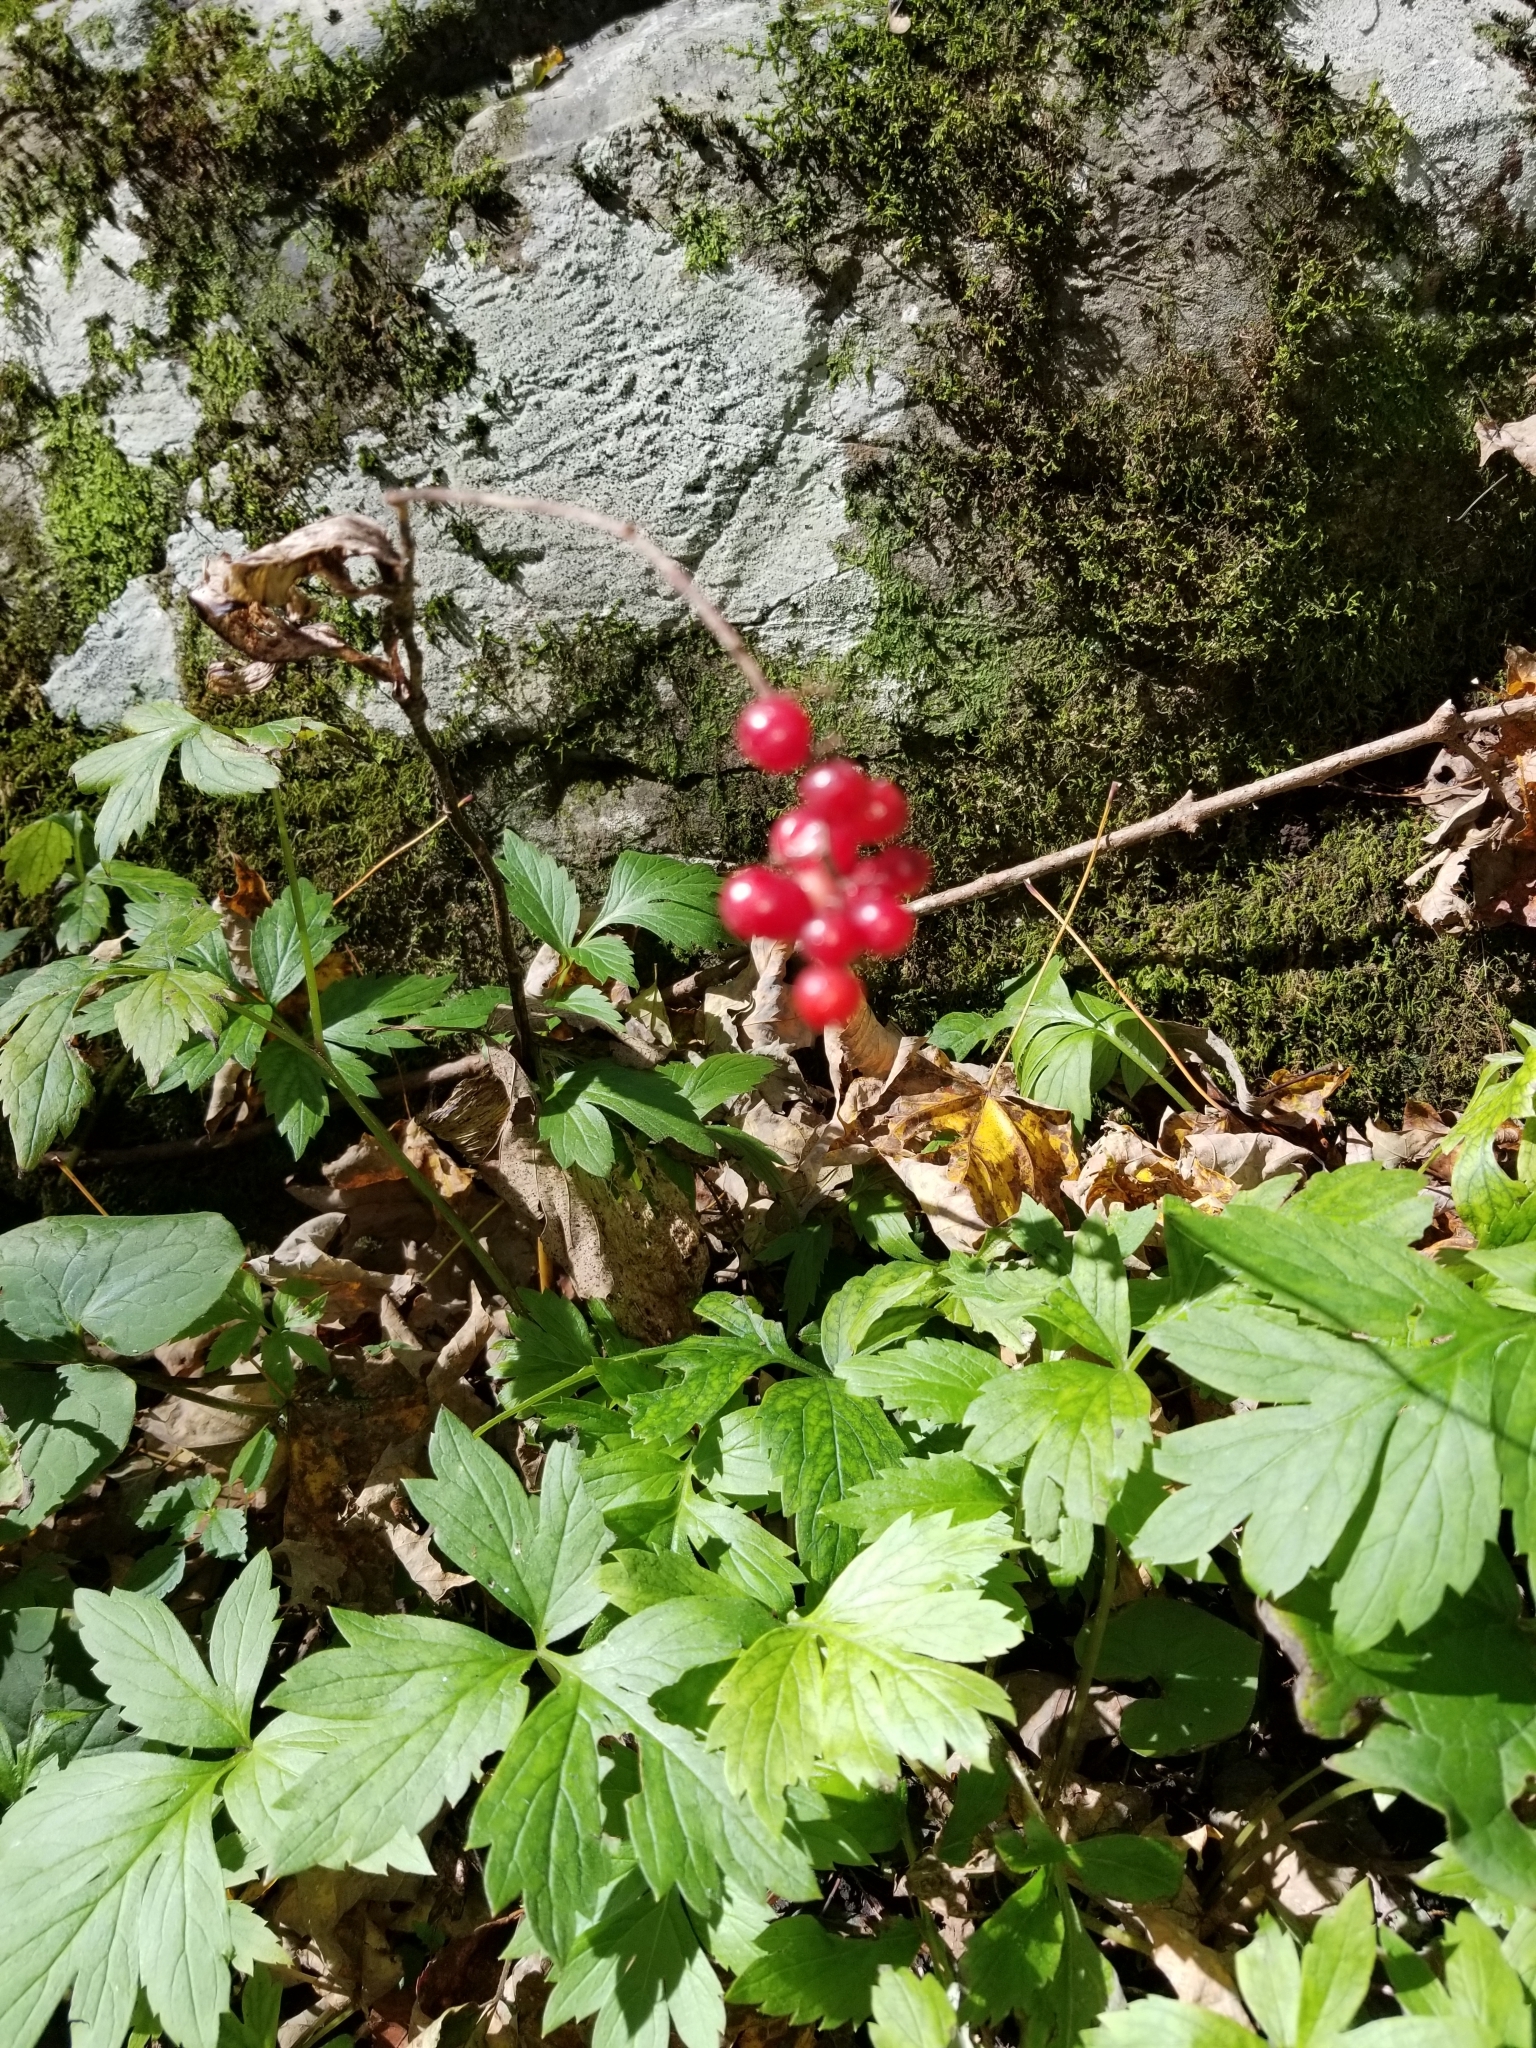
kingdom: Plantae
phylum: Tracheophyta
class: Liliopsida
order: Asparagales
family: Asparagaceae
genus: Maianthemum
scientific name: Maianthemum racemosum
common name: False spikenard
